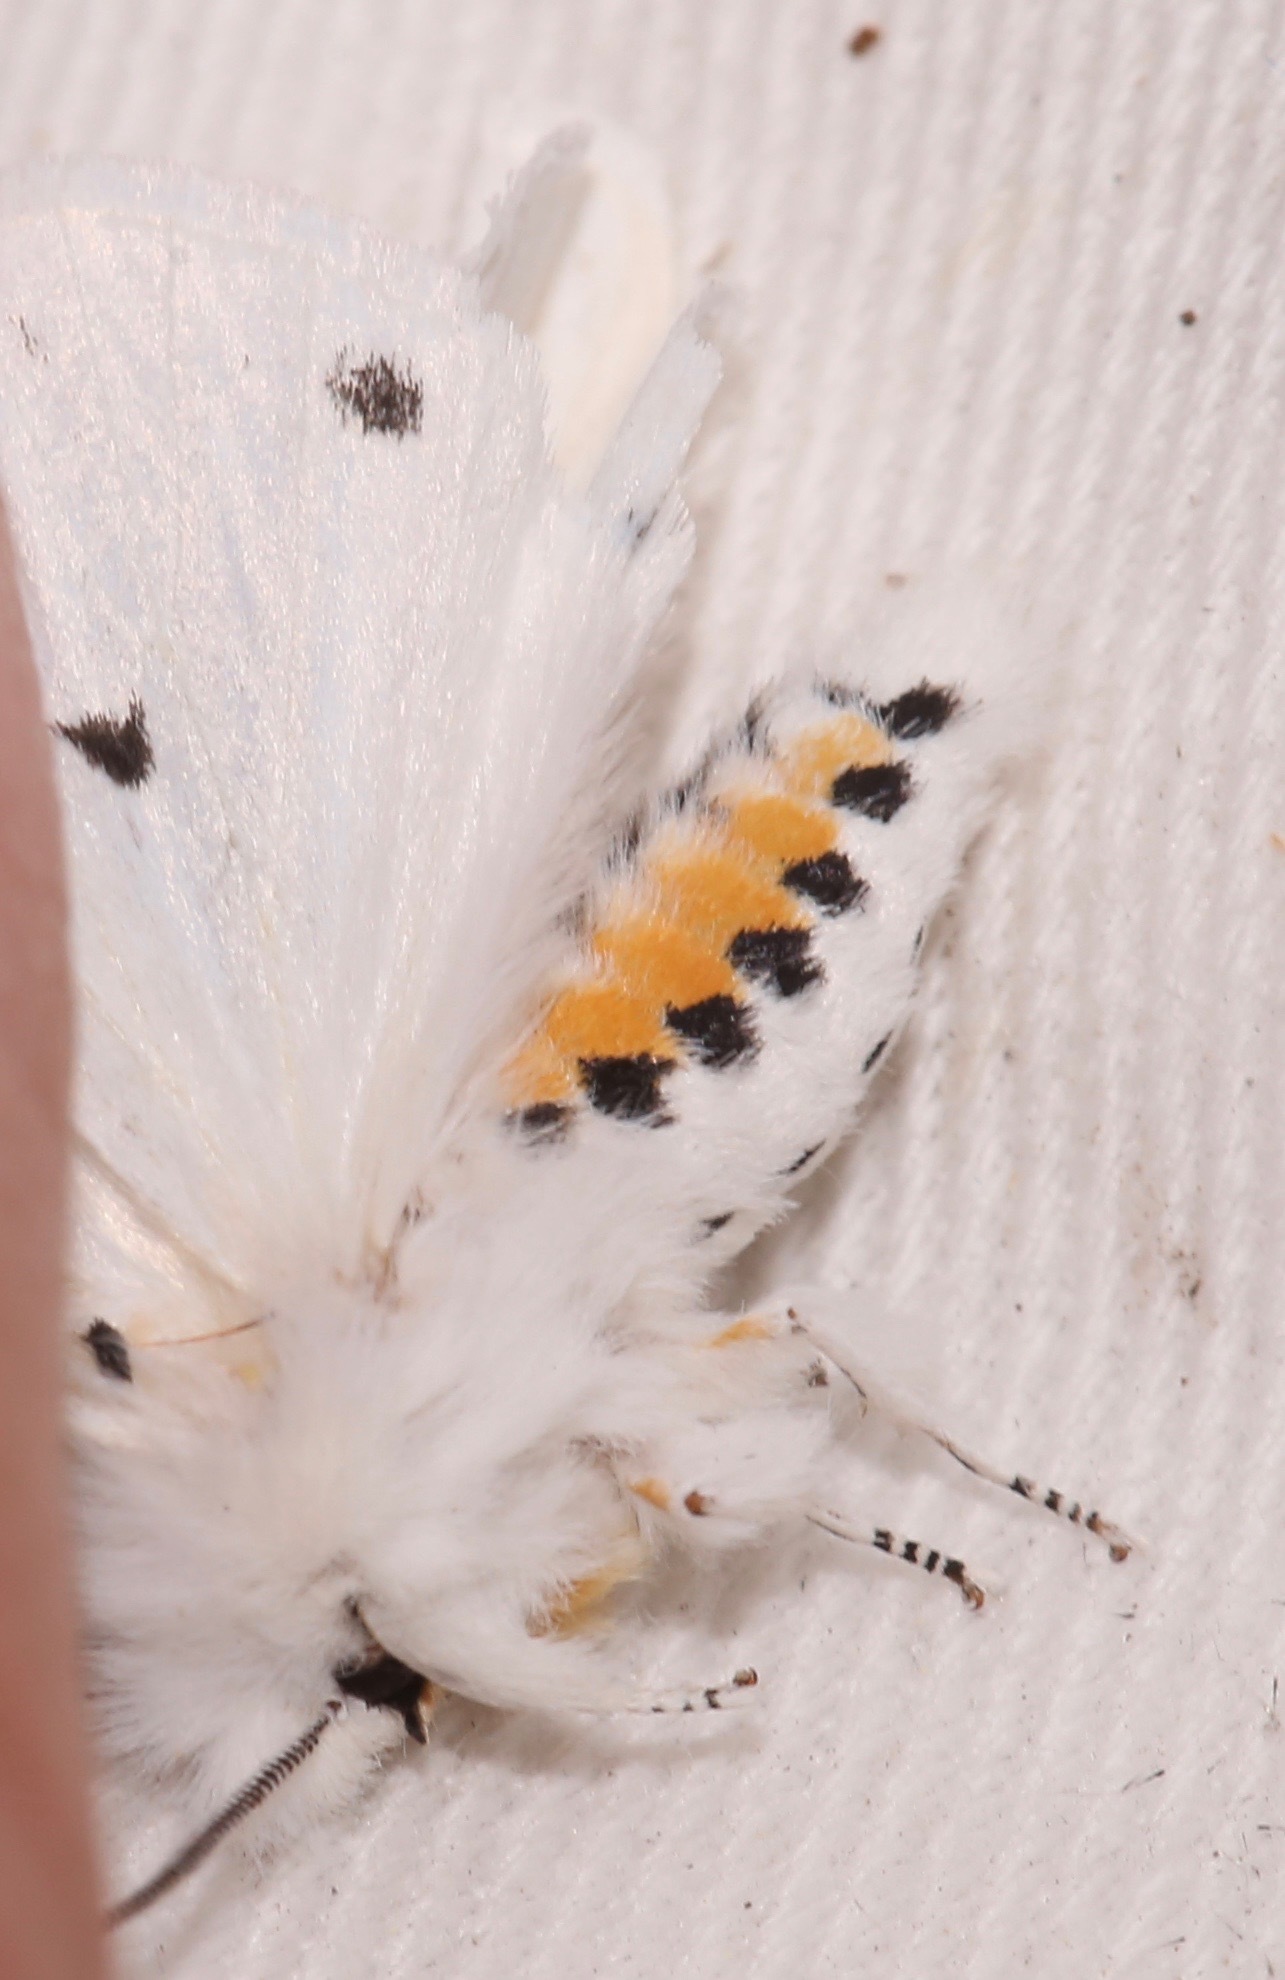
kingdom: Animalia
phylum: Arthropoda
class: Insecta
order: Lepidoptera
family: Erebidae
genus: Spilosoma
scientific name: Spilosoma virginica
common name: Virginia tiger moth
